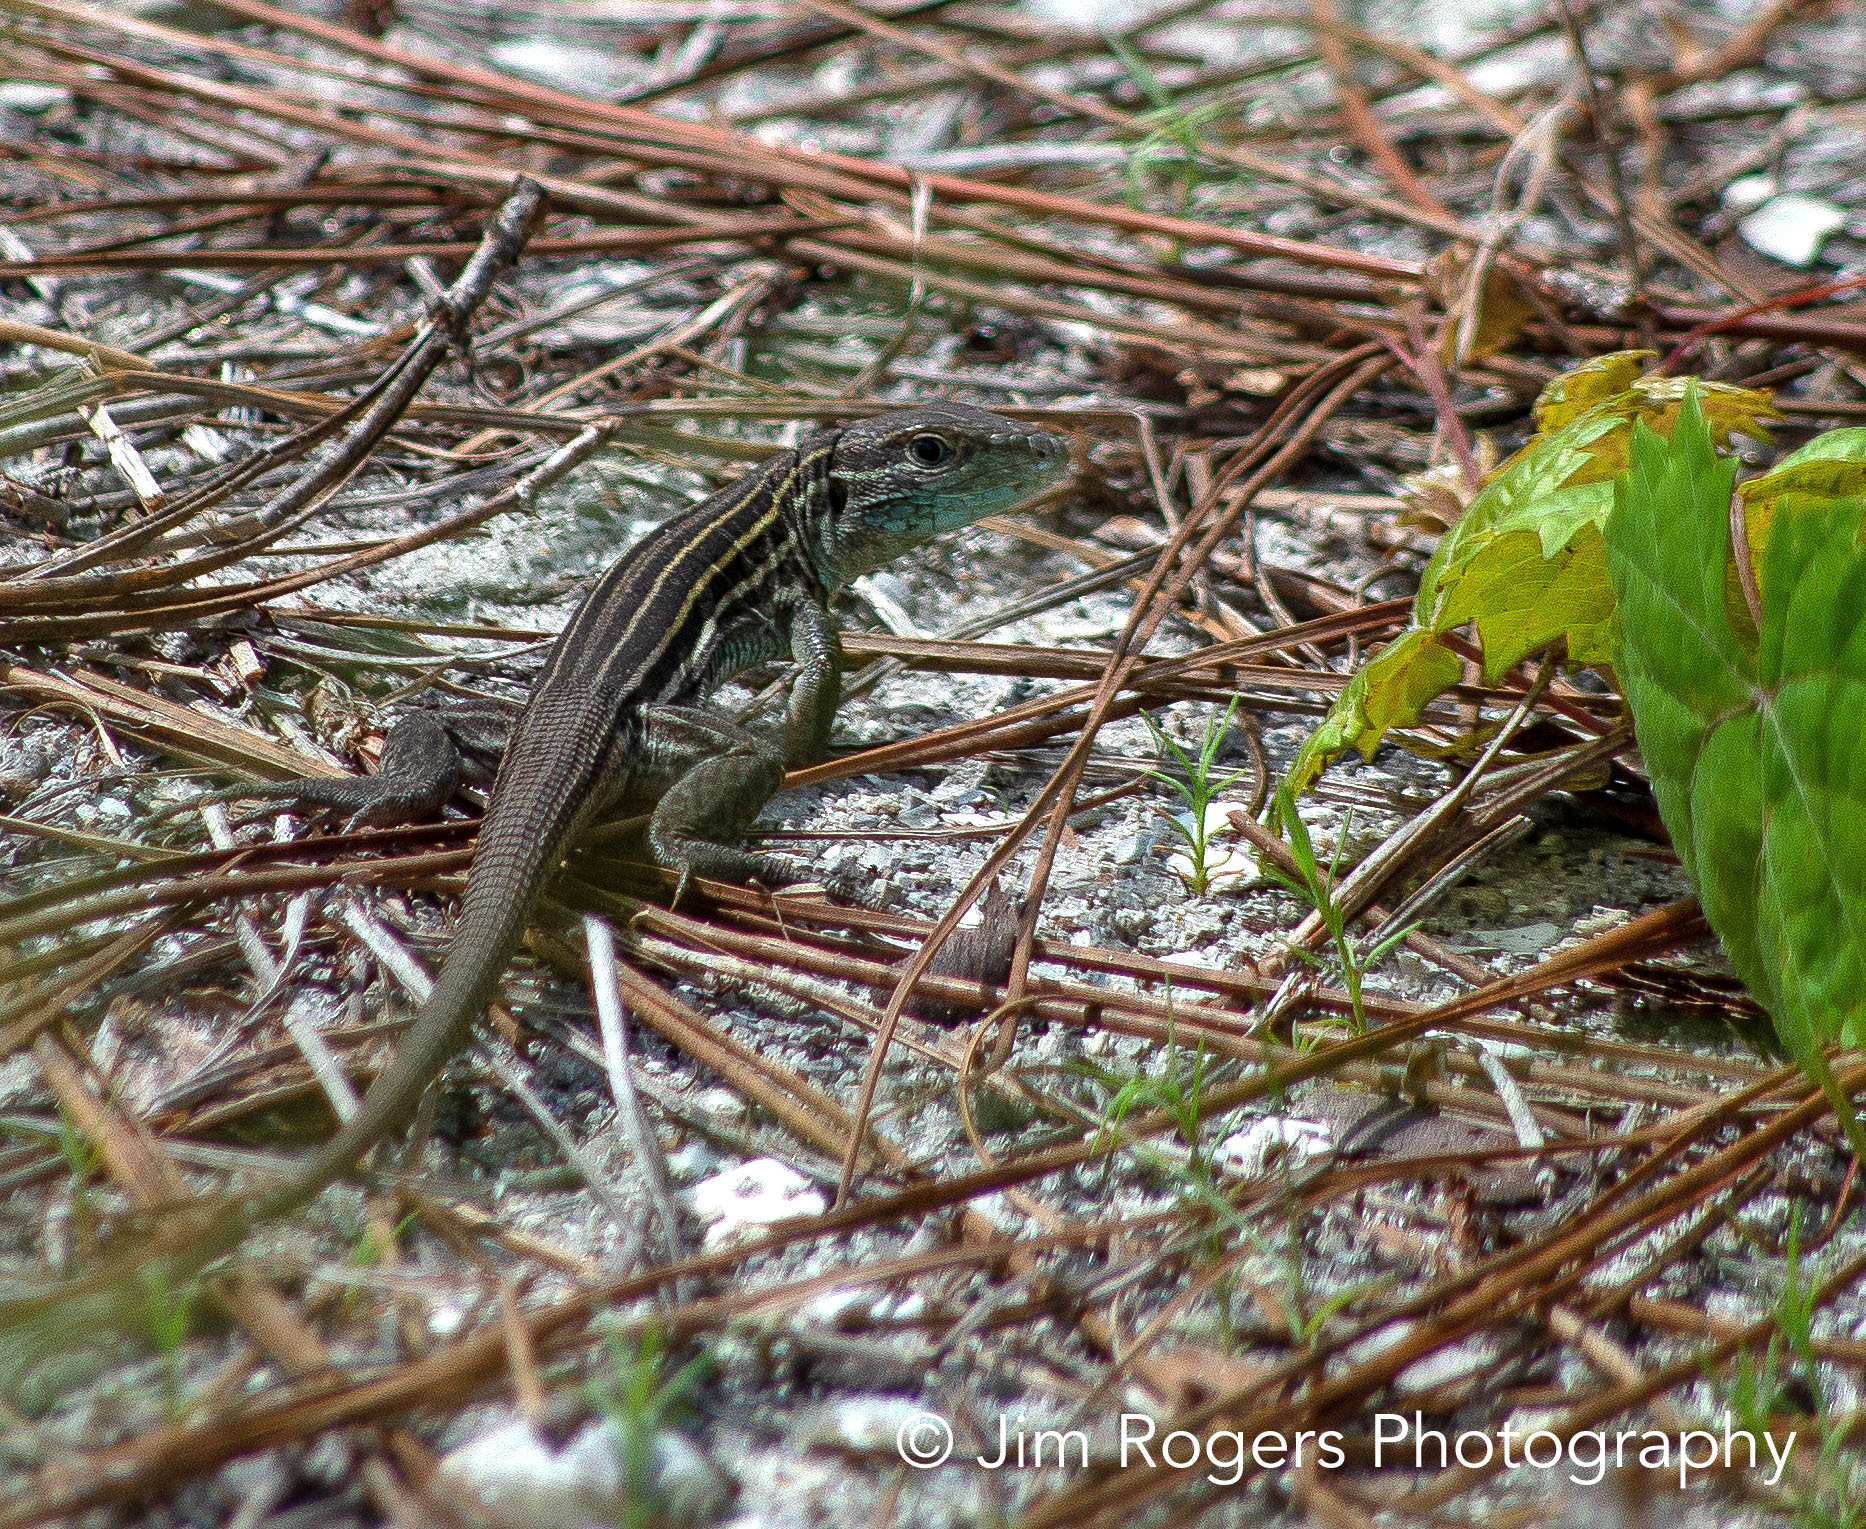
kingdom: Animalia
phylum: Chordata
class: Squamata
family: Teiidae
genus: Aspidoscelis
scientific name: Aspidoscelis sexlineatus
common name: Six-lined racerunner
